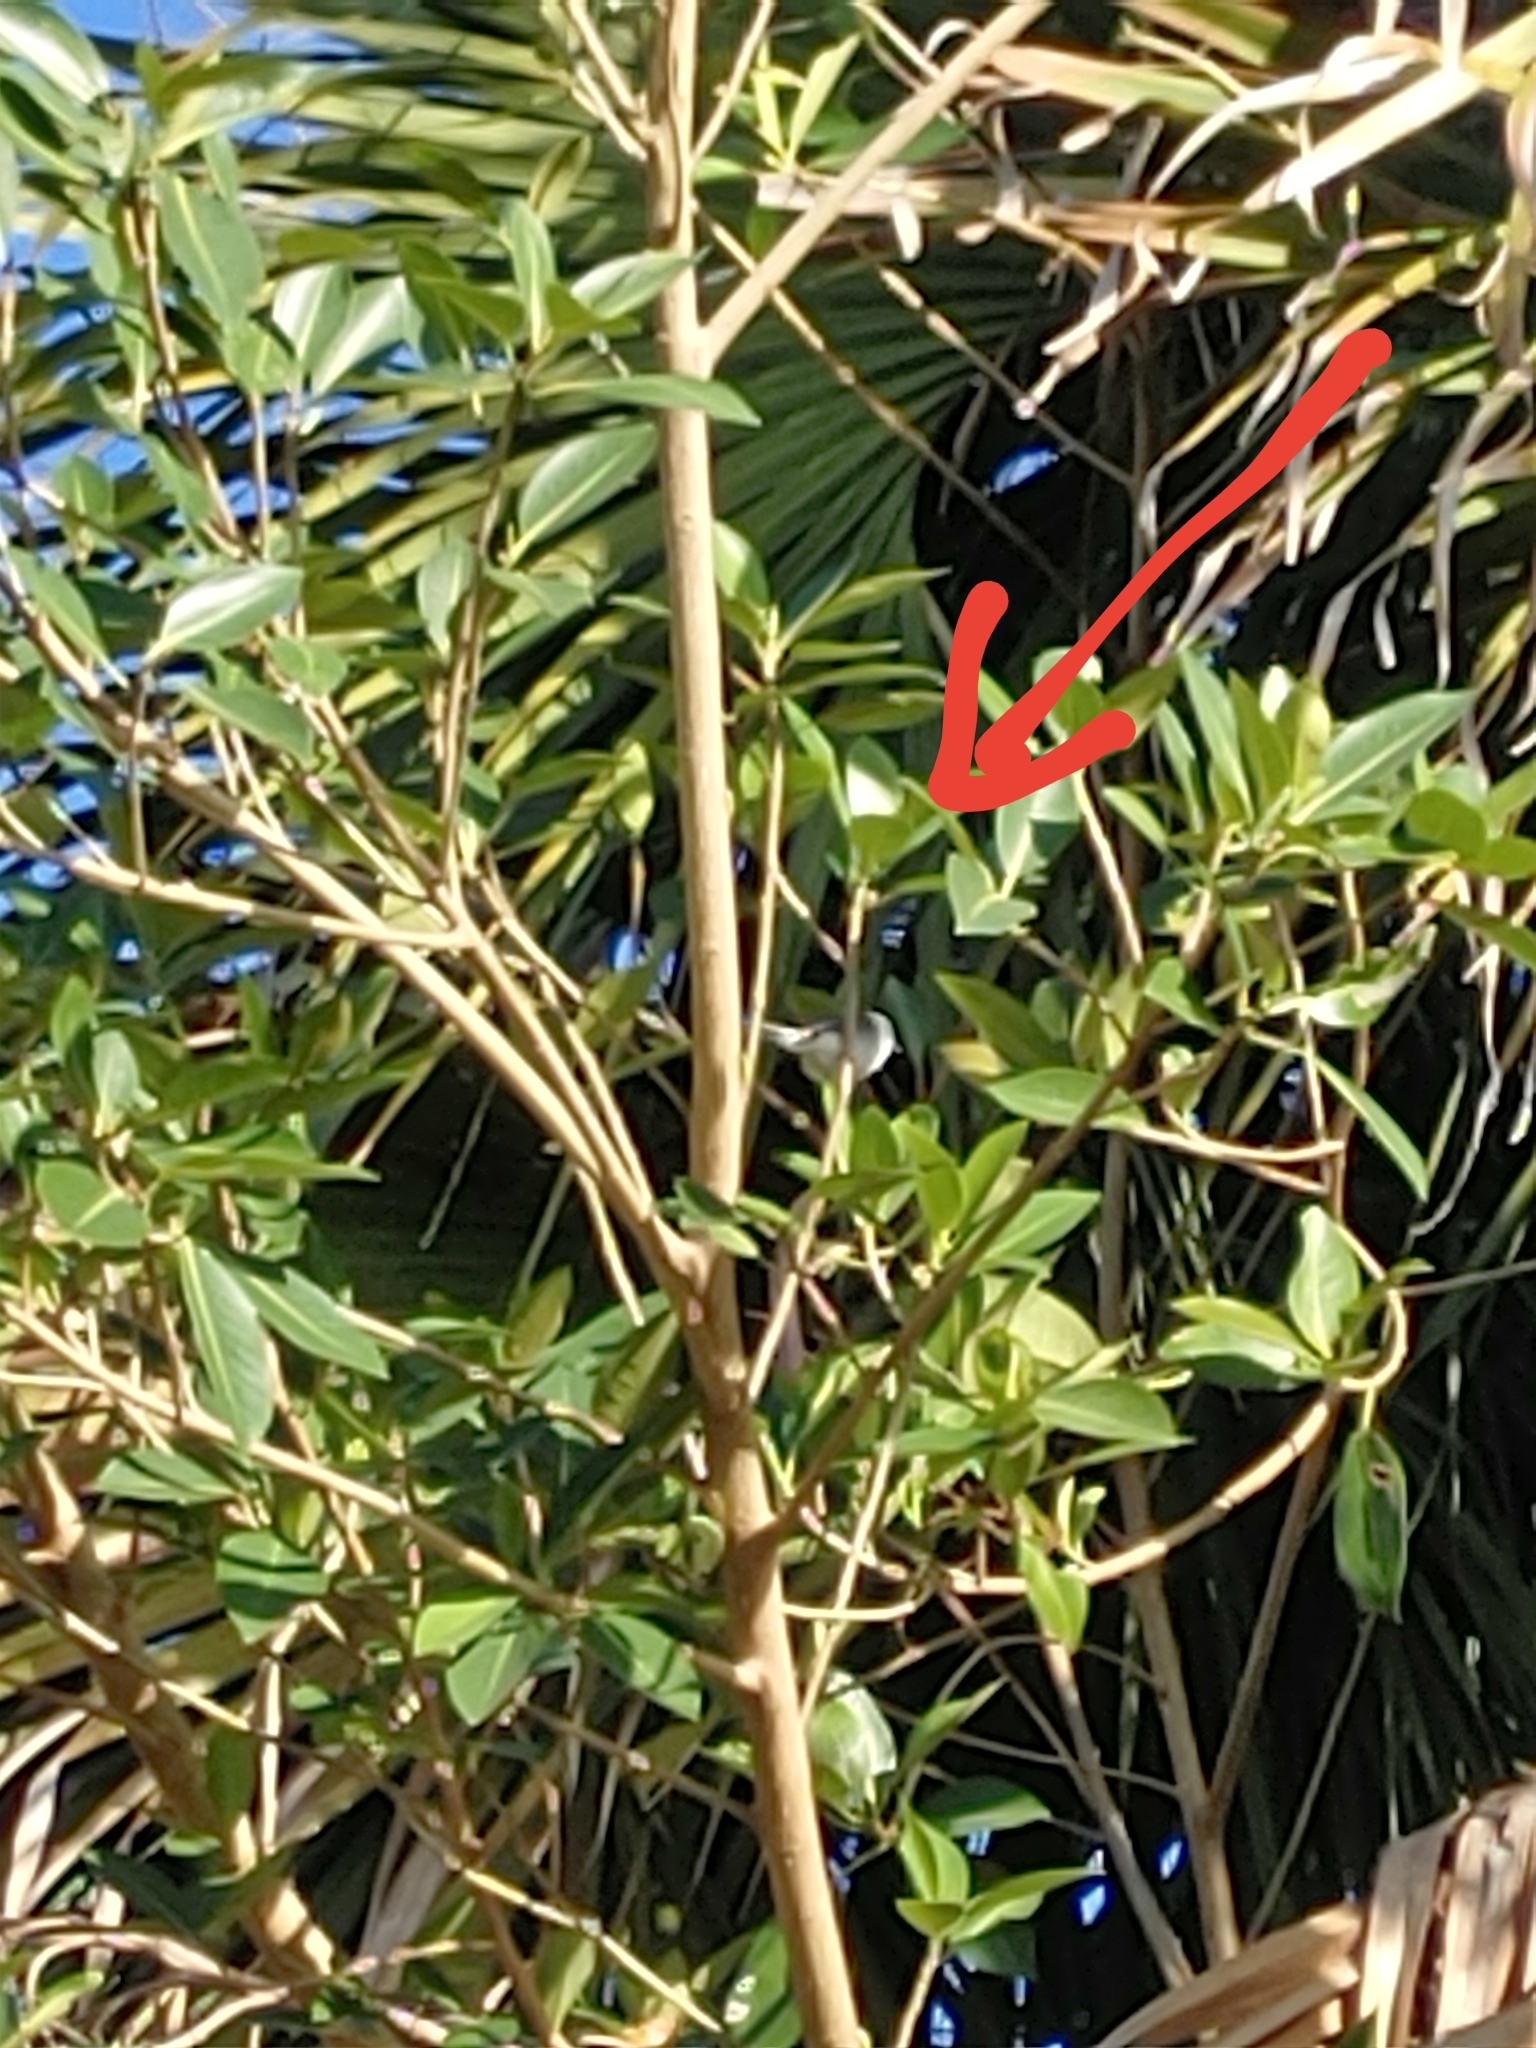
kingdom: Animalia
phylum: Chordata
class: Aves
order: Passeriformes
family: Polioptilidae
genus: Polioptila
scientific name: Polioptila caerulea
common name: Blue-gray gnatcatcher
